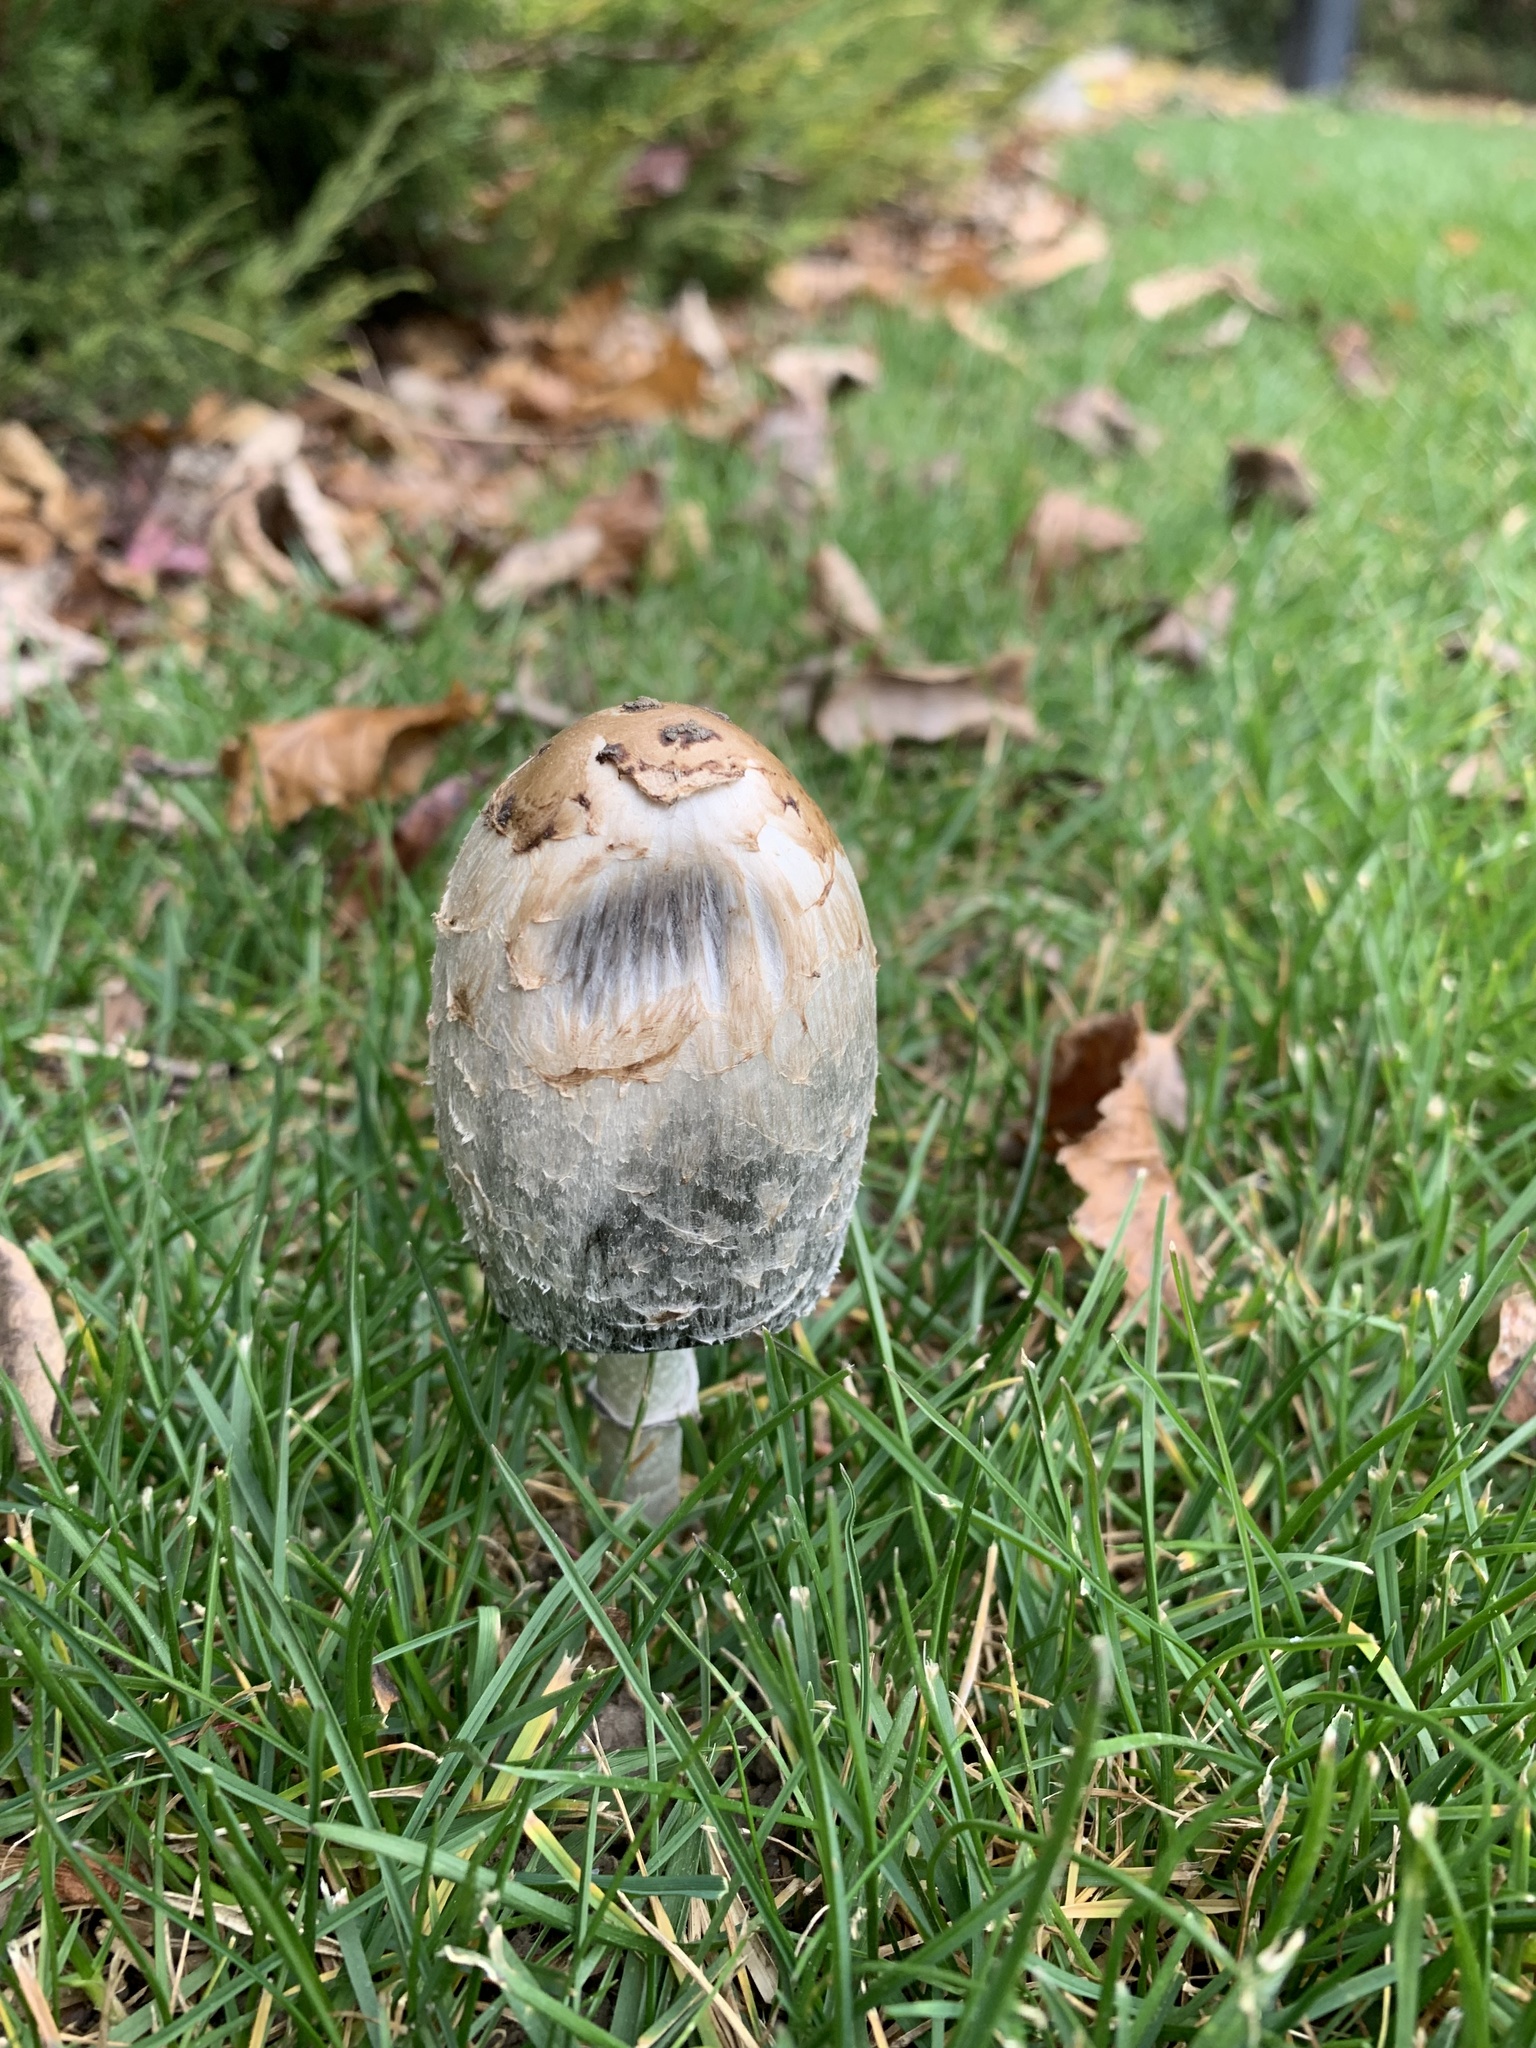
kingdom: Fungi
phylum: Basidiomycota
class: Agaricomycetes
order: Agaricales
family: Agaricaceae
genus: Coprinus
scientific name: Coprinus comatus
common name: Lawyer's wig
